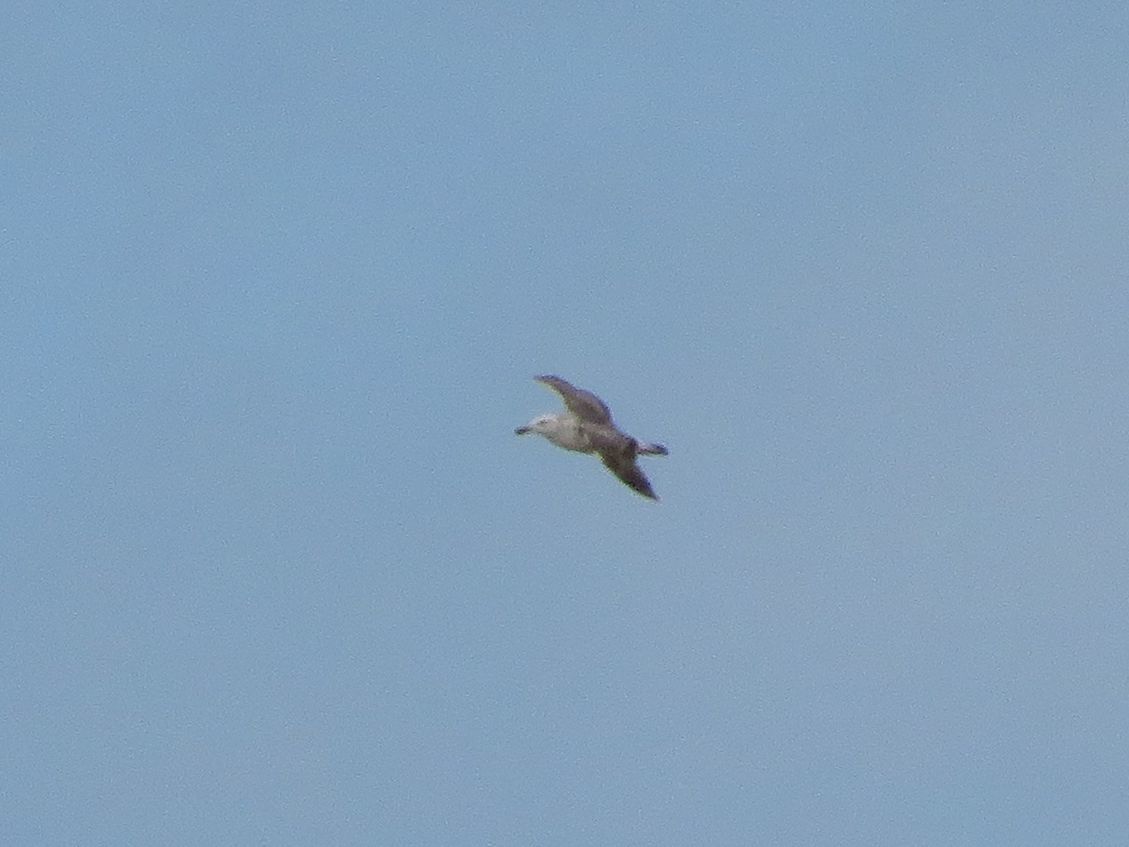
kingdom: Animalia
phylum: Chordata
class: Aves
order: Charadriiformes
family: Laridae
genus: Larus
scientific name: Larus dominicanus
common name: Kelp gull
